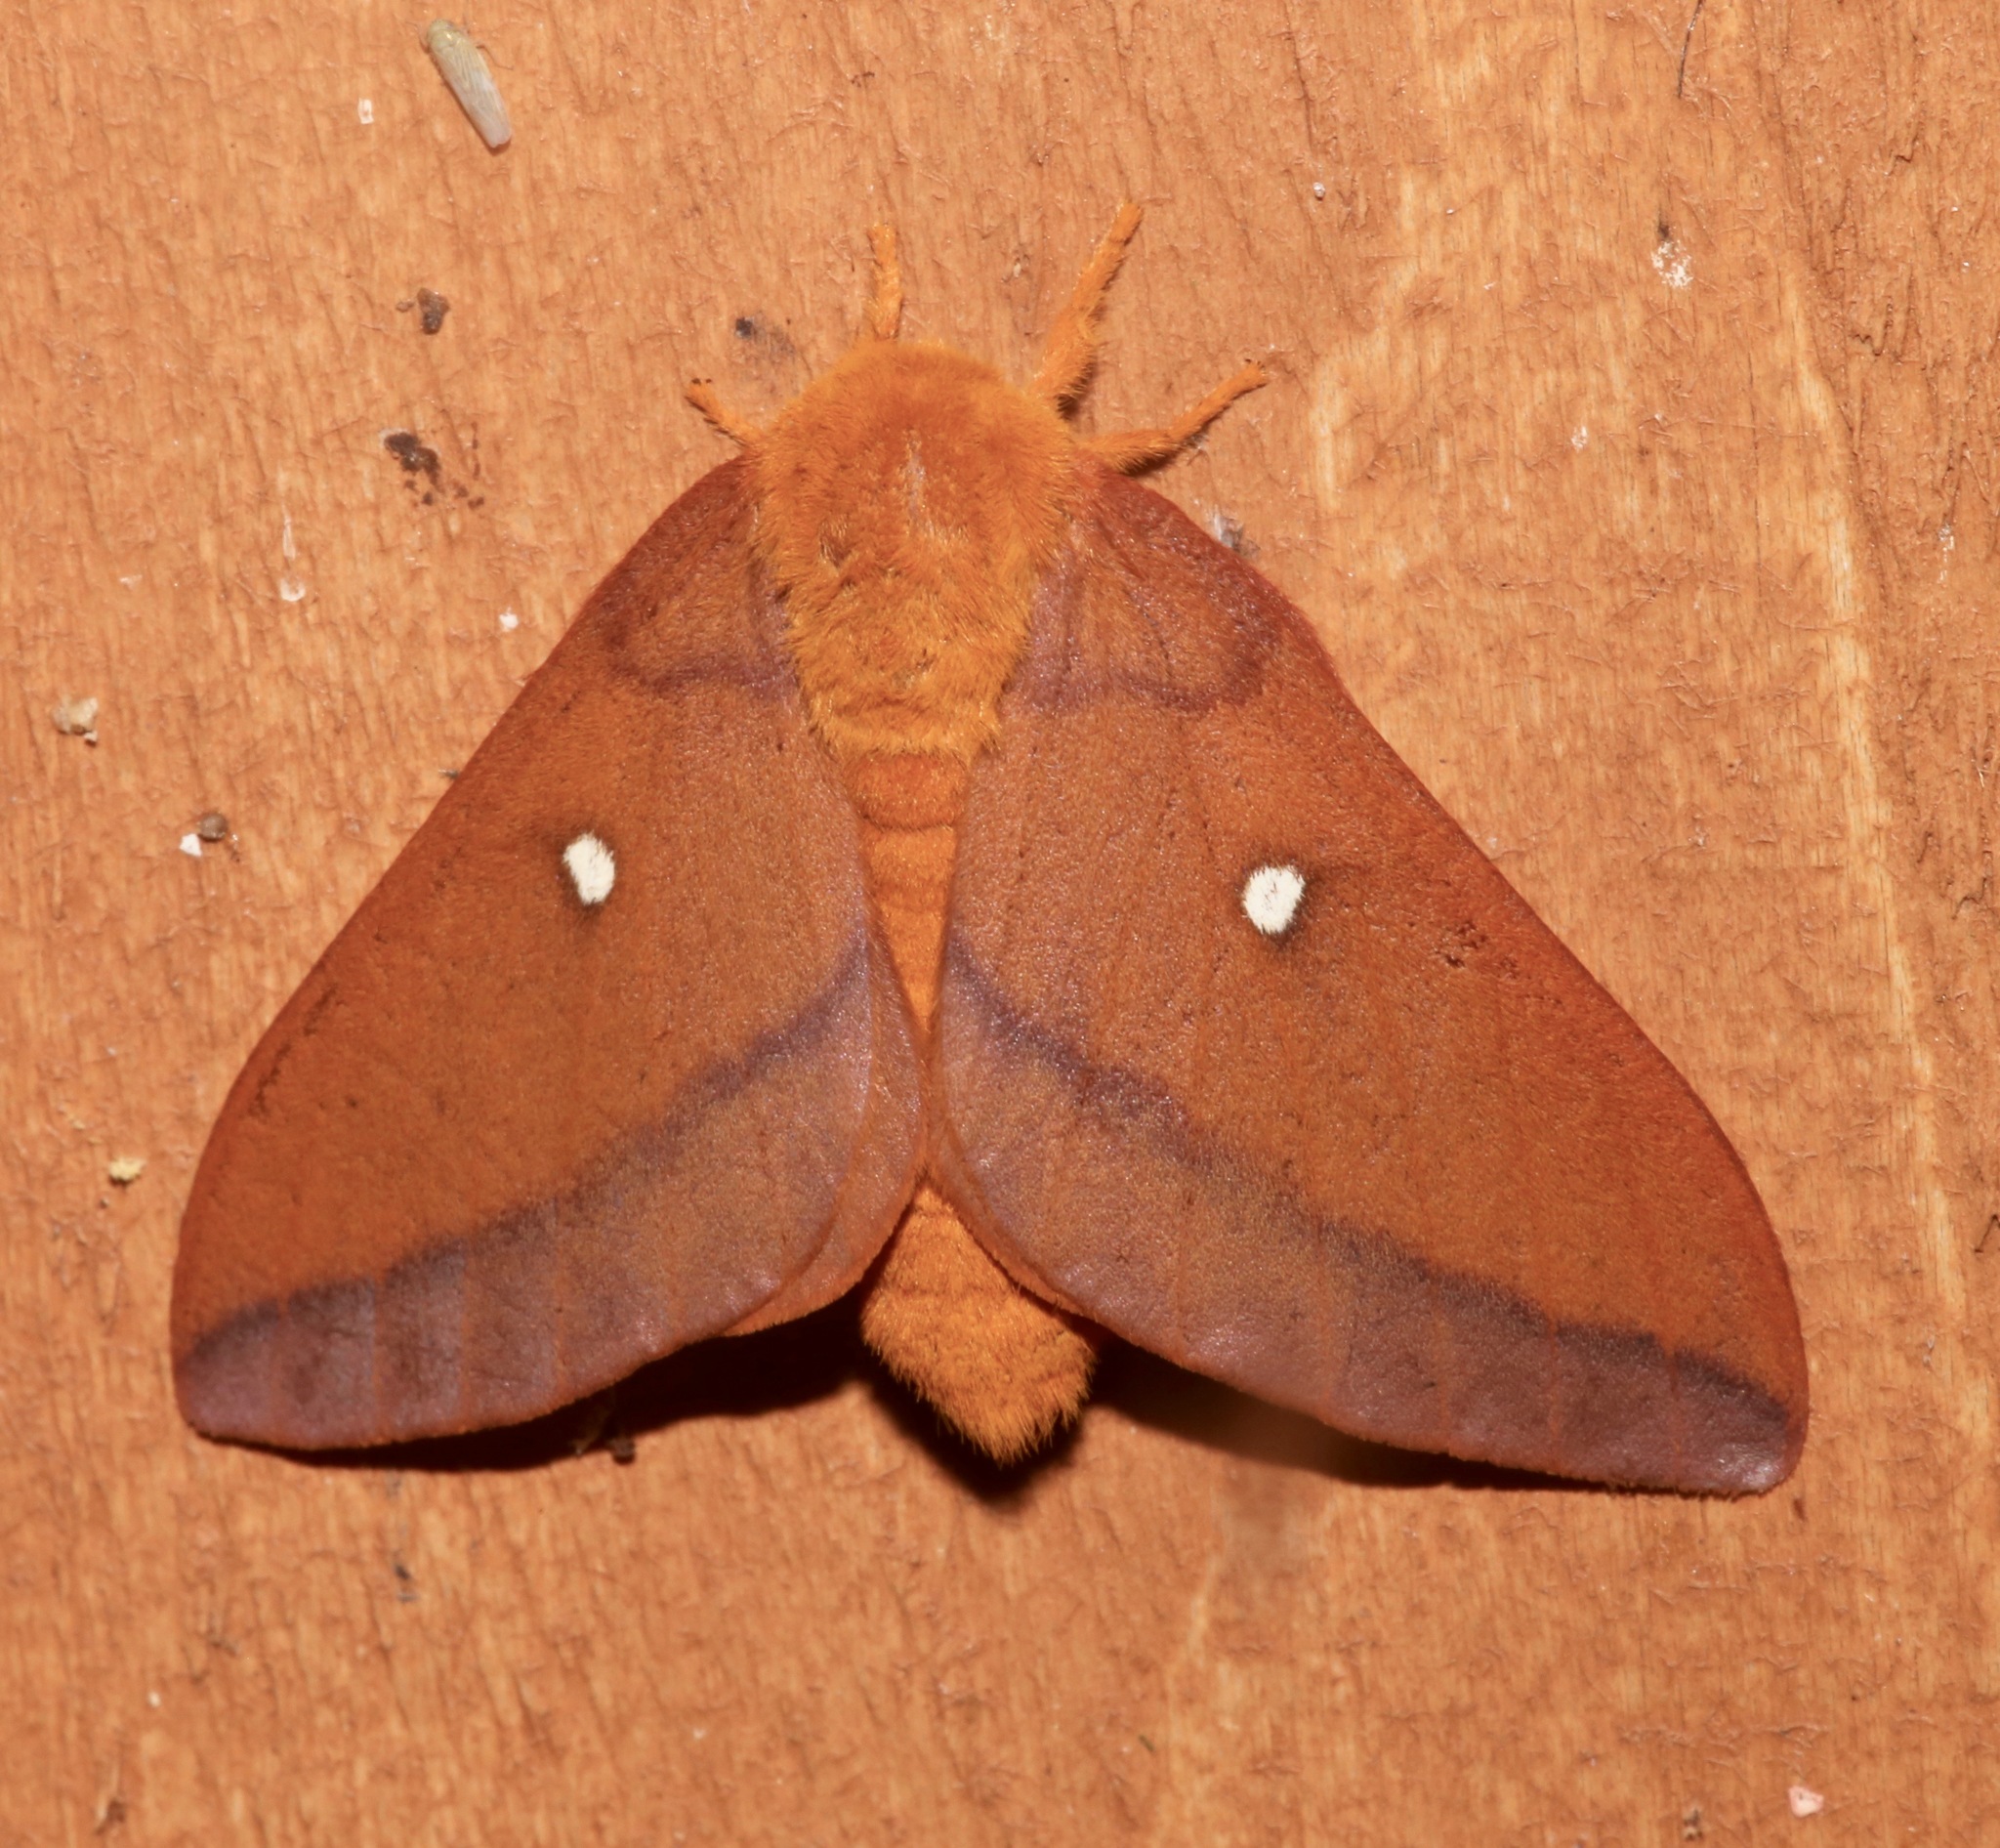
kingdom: Animalia
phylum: Arthropoda
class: Insecta
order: Lepidoptera
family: Saturniidae
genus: Anisota
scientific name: Anisota virginiensis
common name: Pink striped oakworm moth
